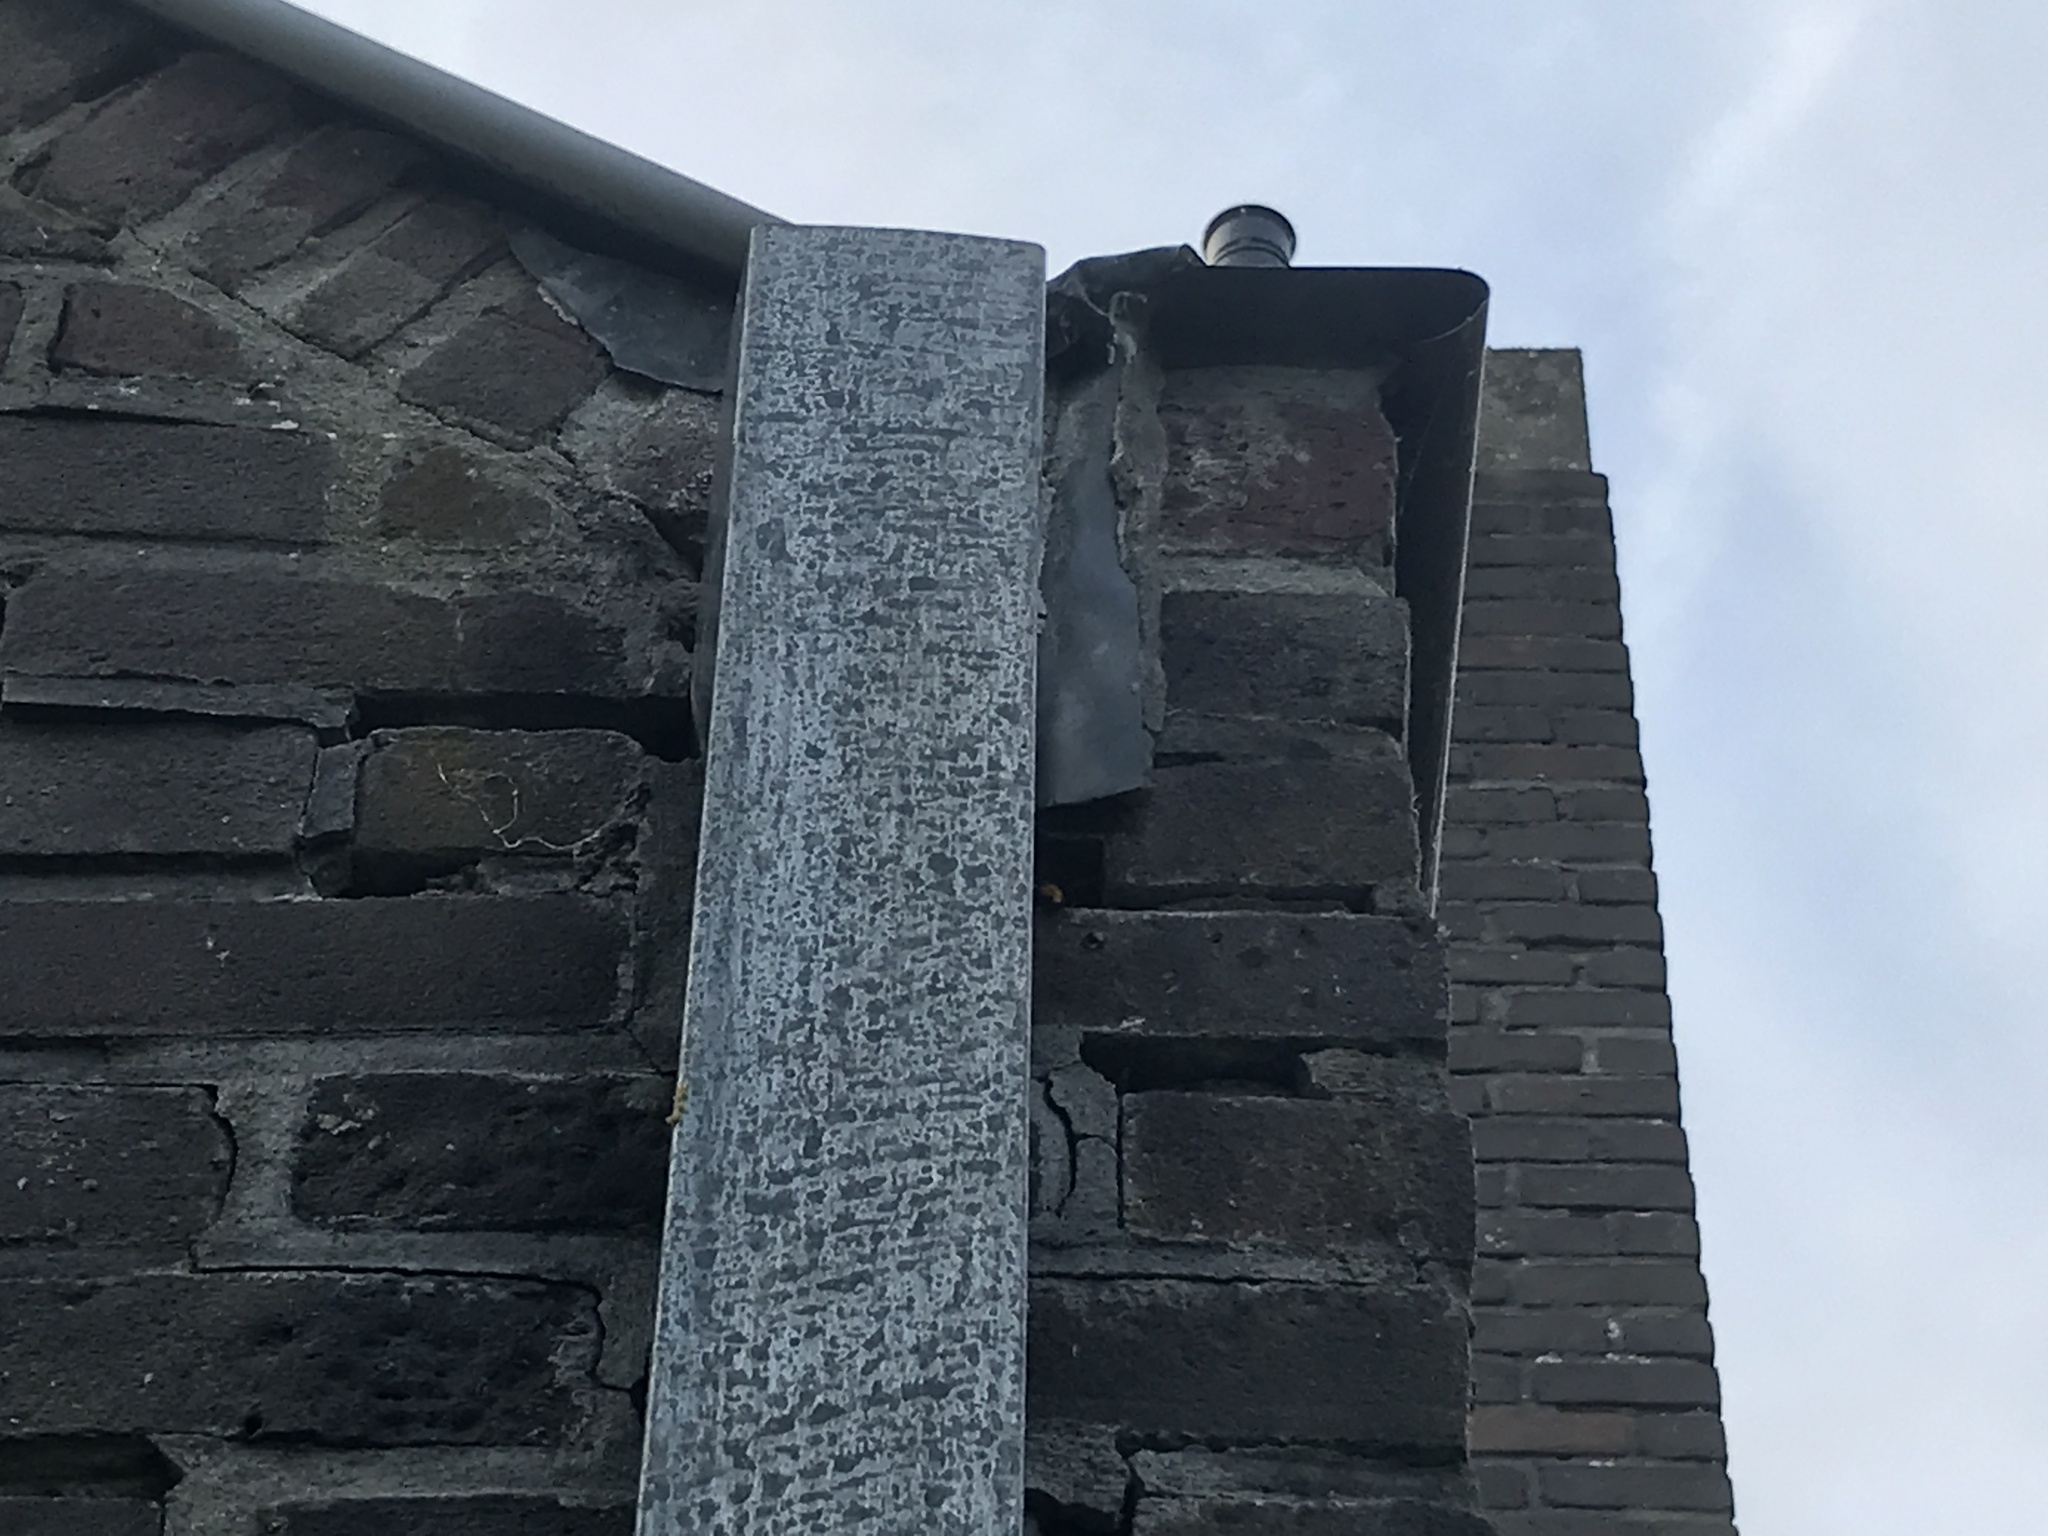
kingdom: Animalia
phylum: Arthropoda
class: Insecta
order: Hymenoptera
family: Vespidae
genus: Vespa
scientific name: Vespa crabro
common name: Hornet
